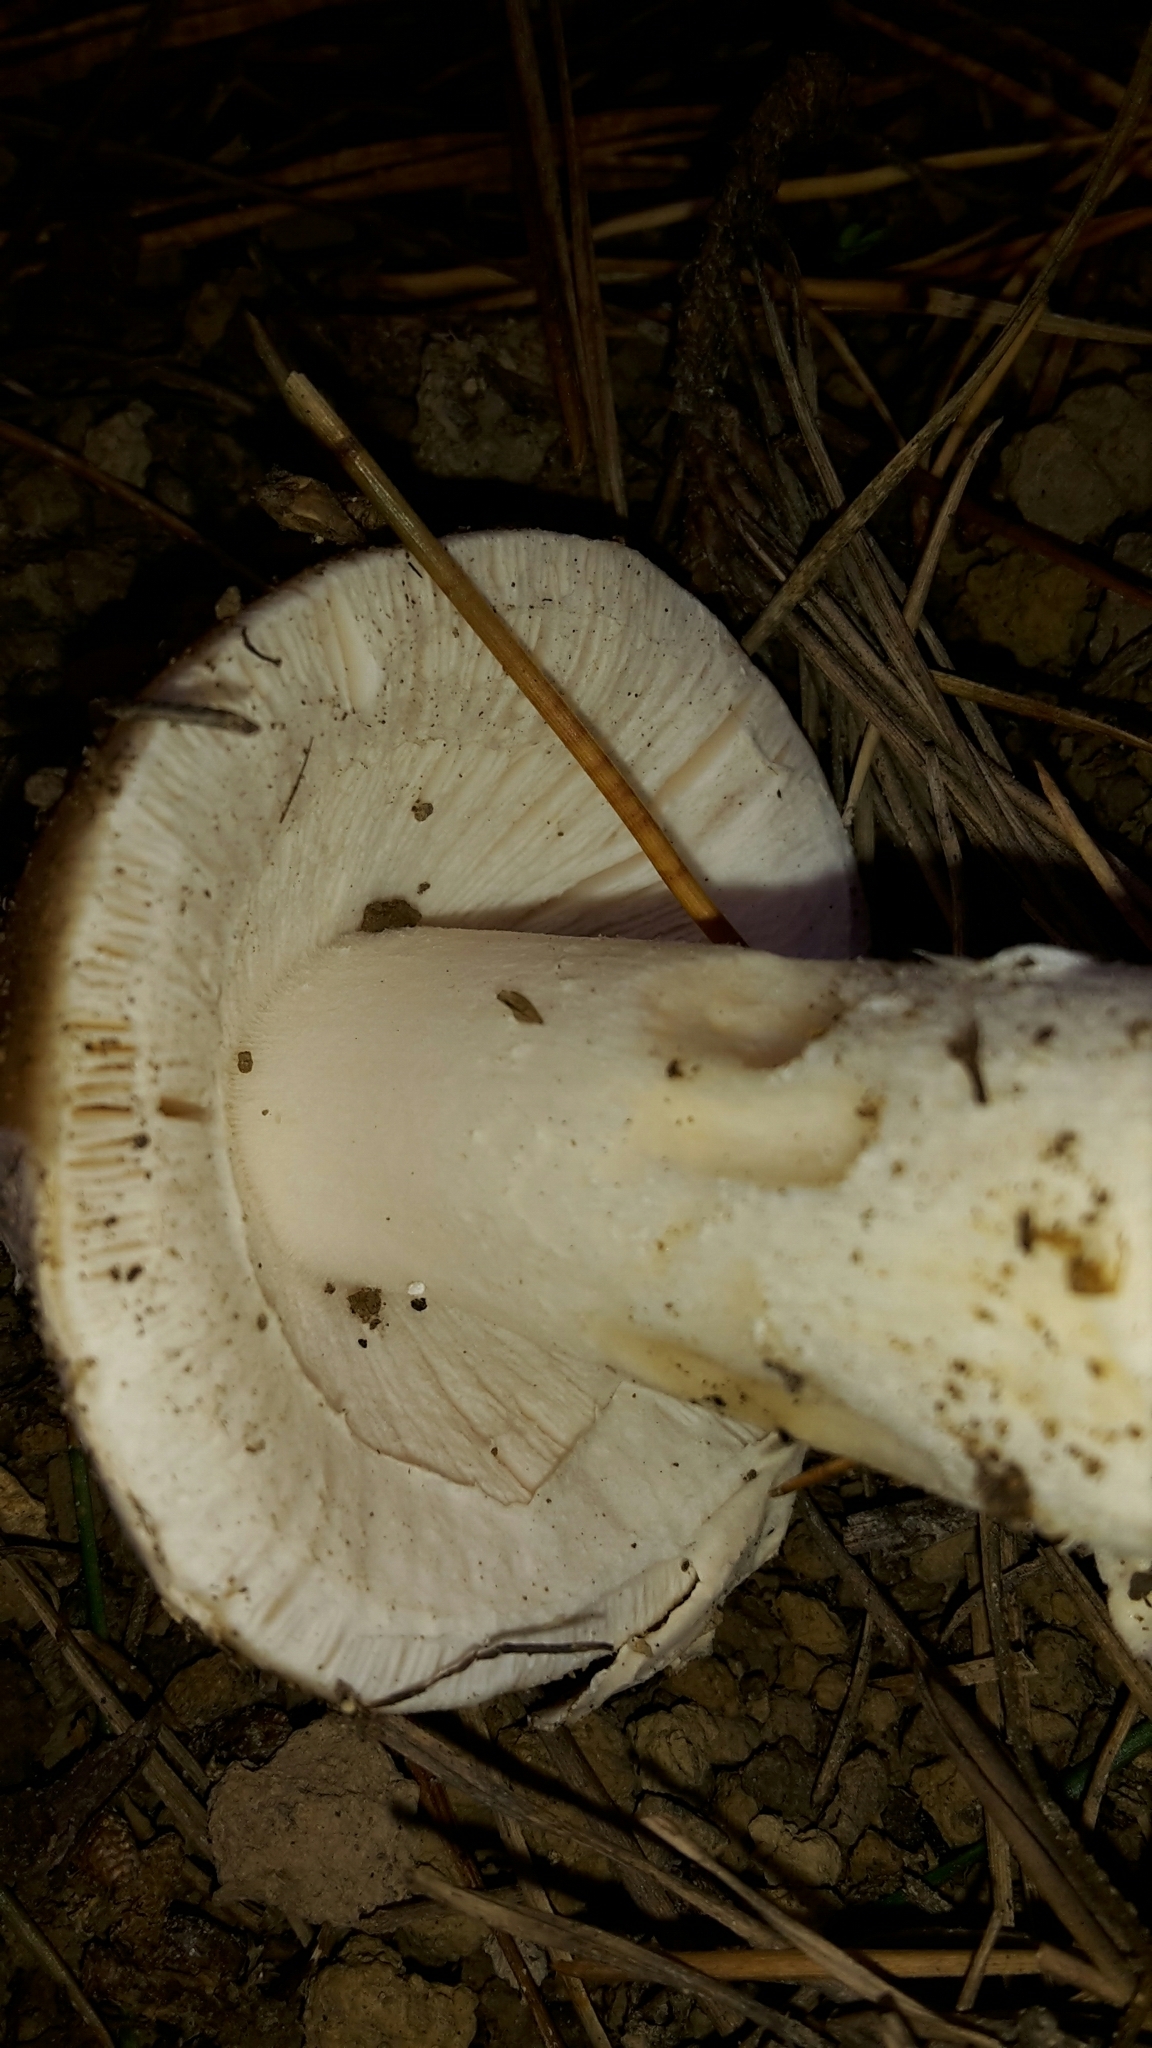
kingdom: Fungi
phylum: Basidiomycota
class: Agaricomycetes
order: Agaricales
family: Amanitaceae
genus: Amanita
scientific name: Amanita gemmata
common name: Jewelled amanita
